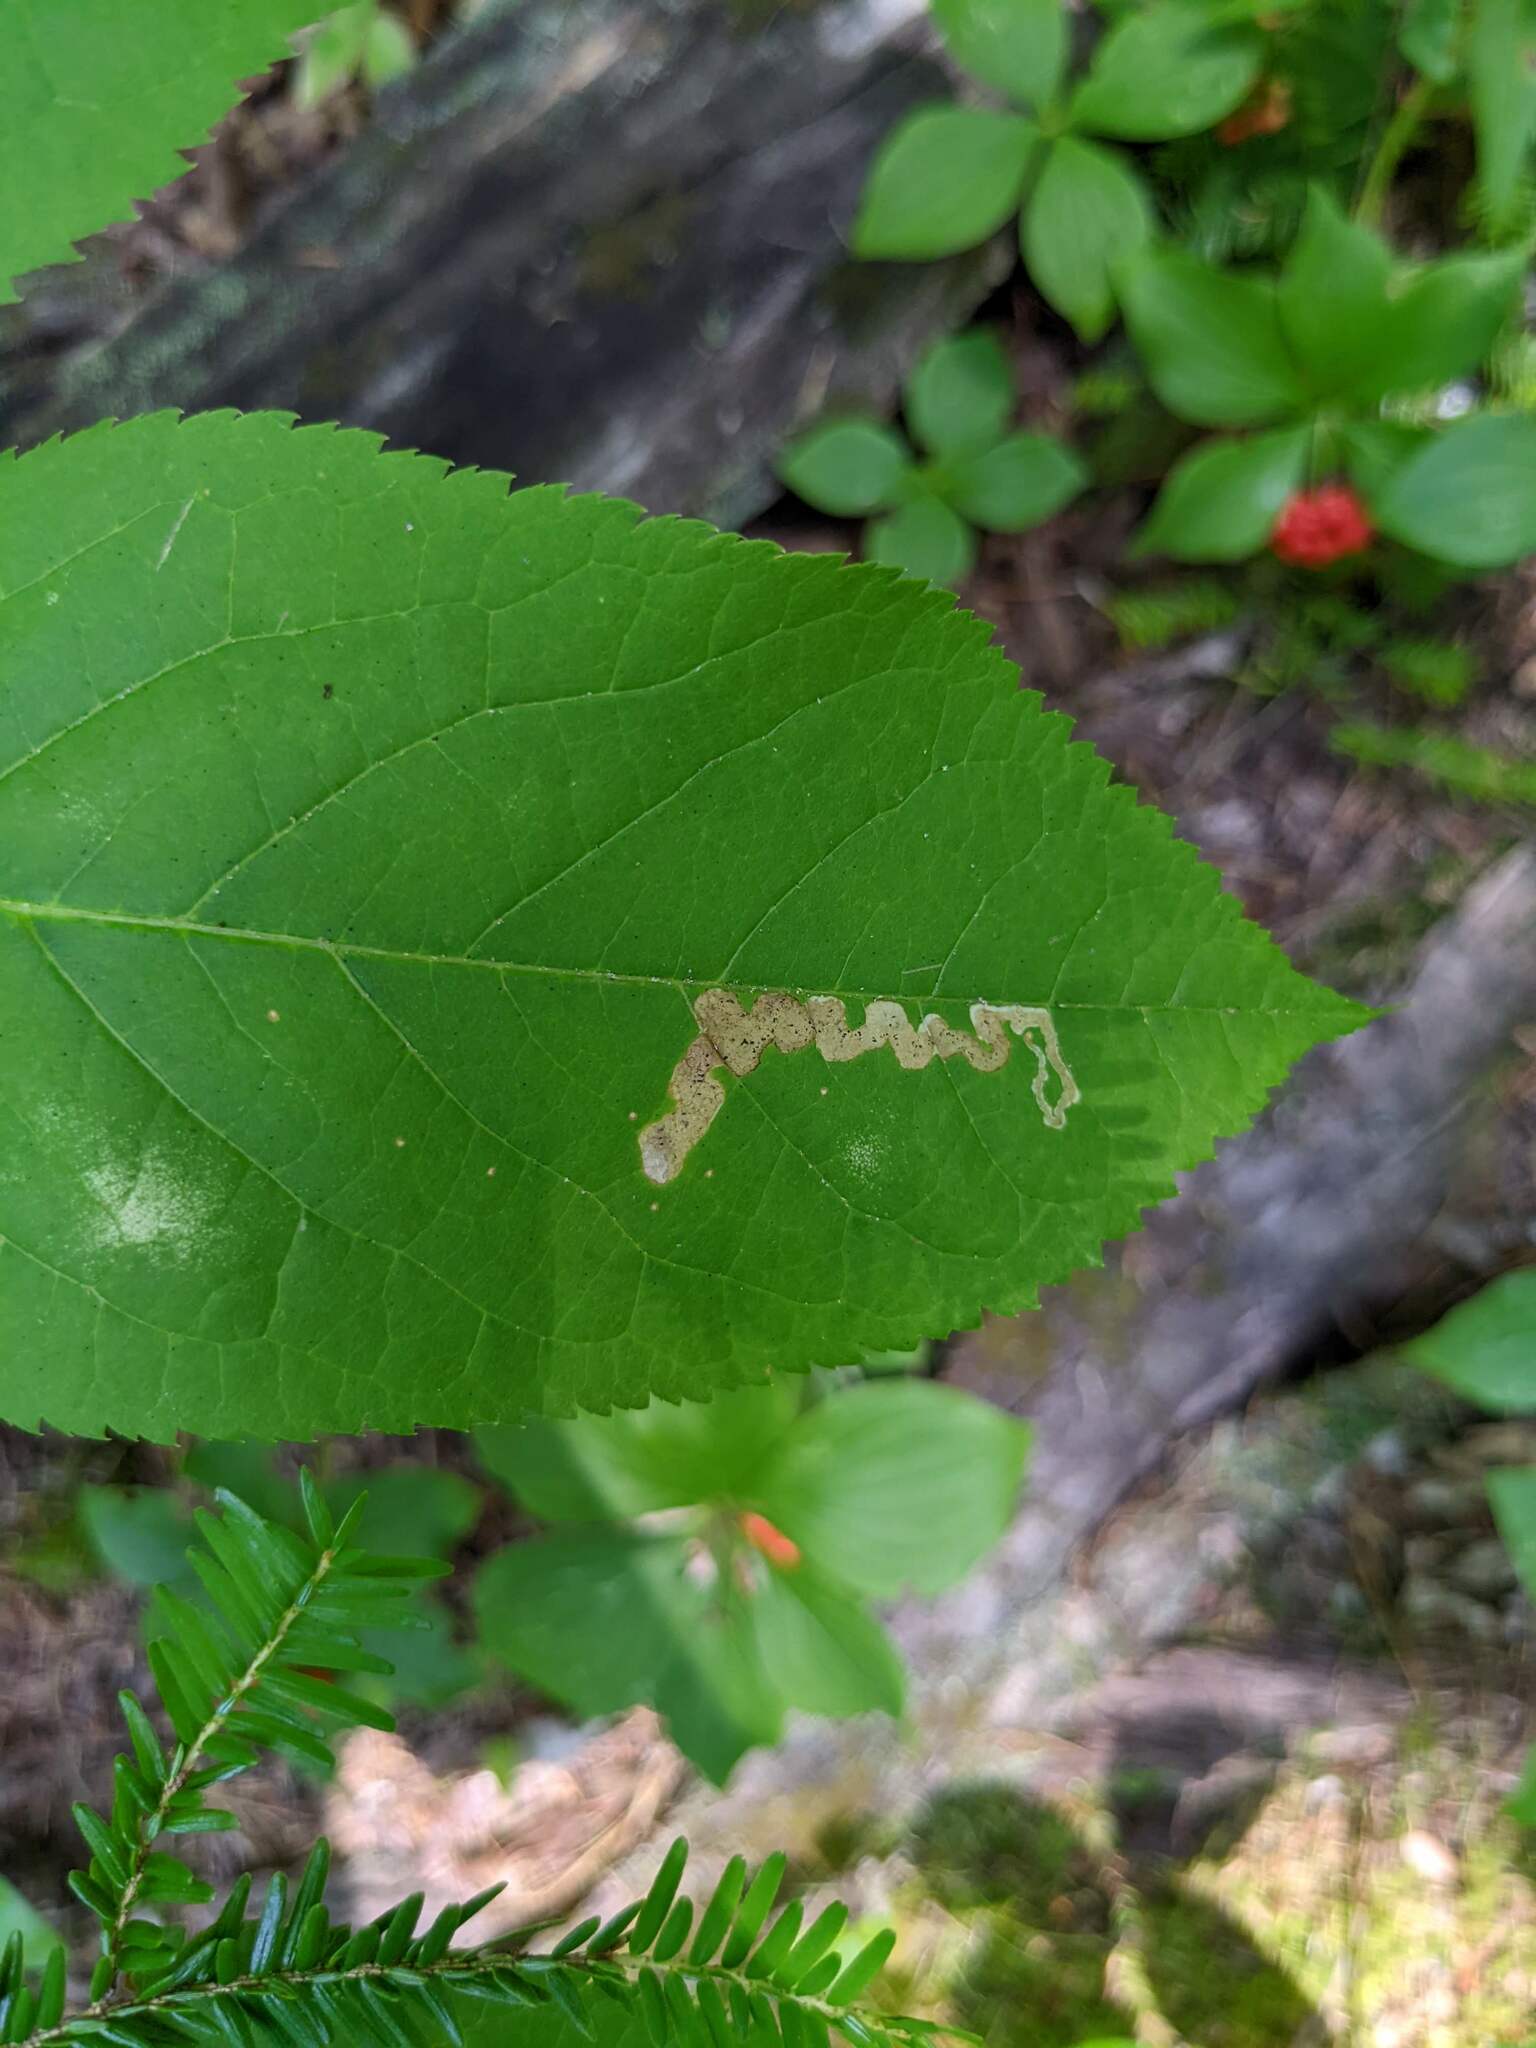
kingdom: Animalia
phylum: Arthropoda
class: Insecta
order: Diptera
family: Agromyzidae
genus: Phytomyza
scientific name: Phytomyza aralivora
